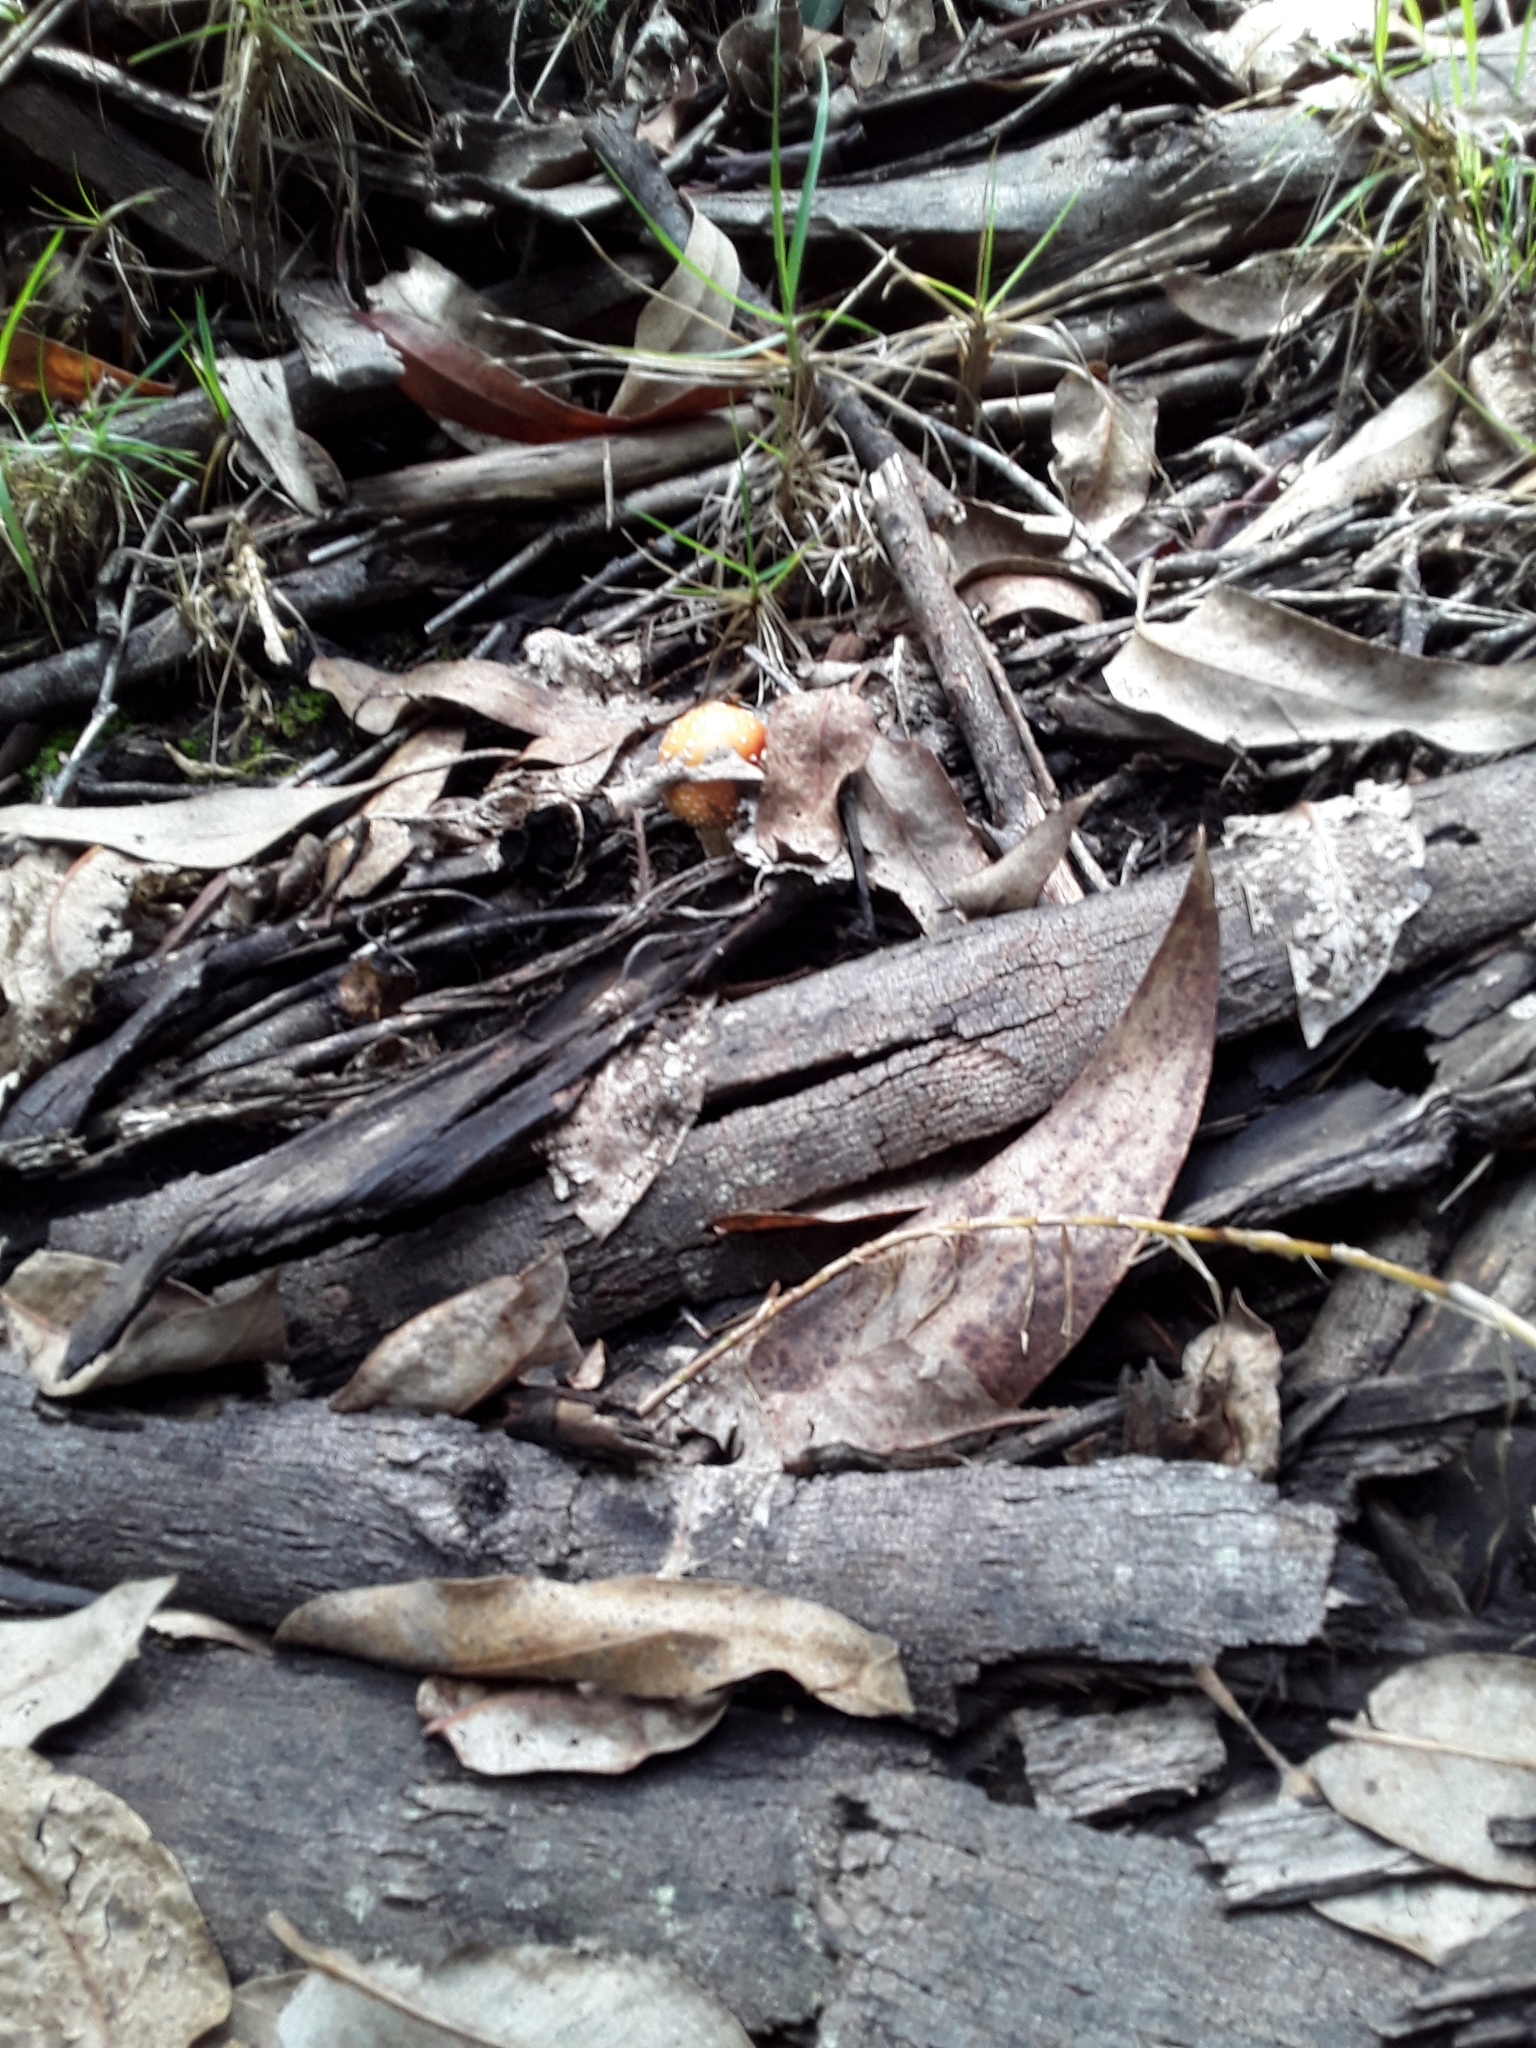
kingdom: Fungi
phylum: Basidiomycota
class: Agaricomycetes
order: Agaricales
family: Amanitaceae
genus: Amanita
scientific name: Amanita muscaria
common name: Fly agaric
